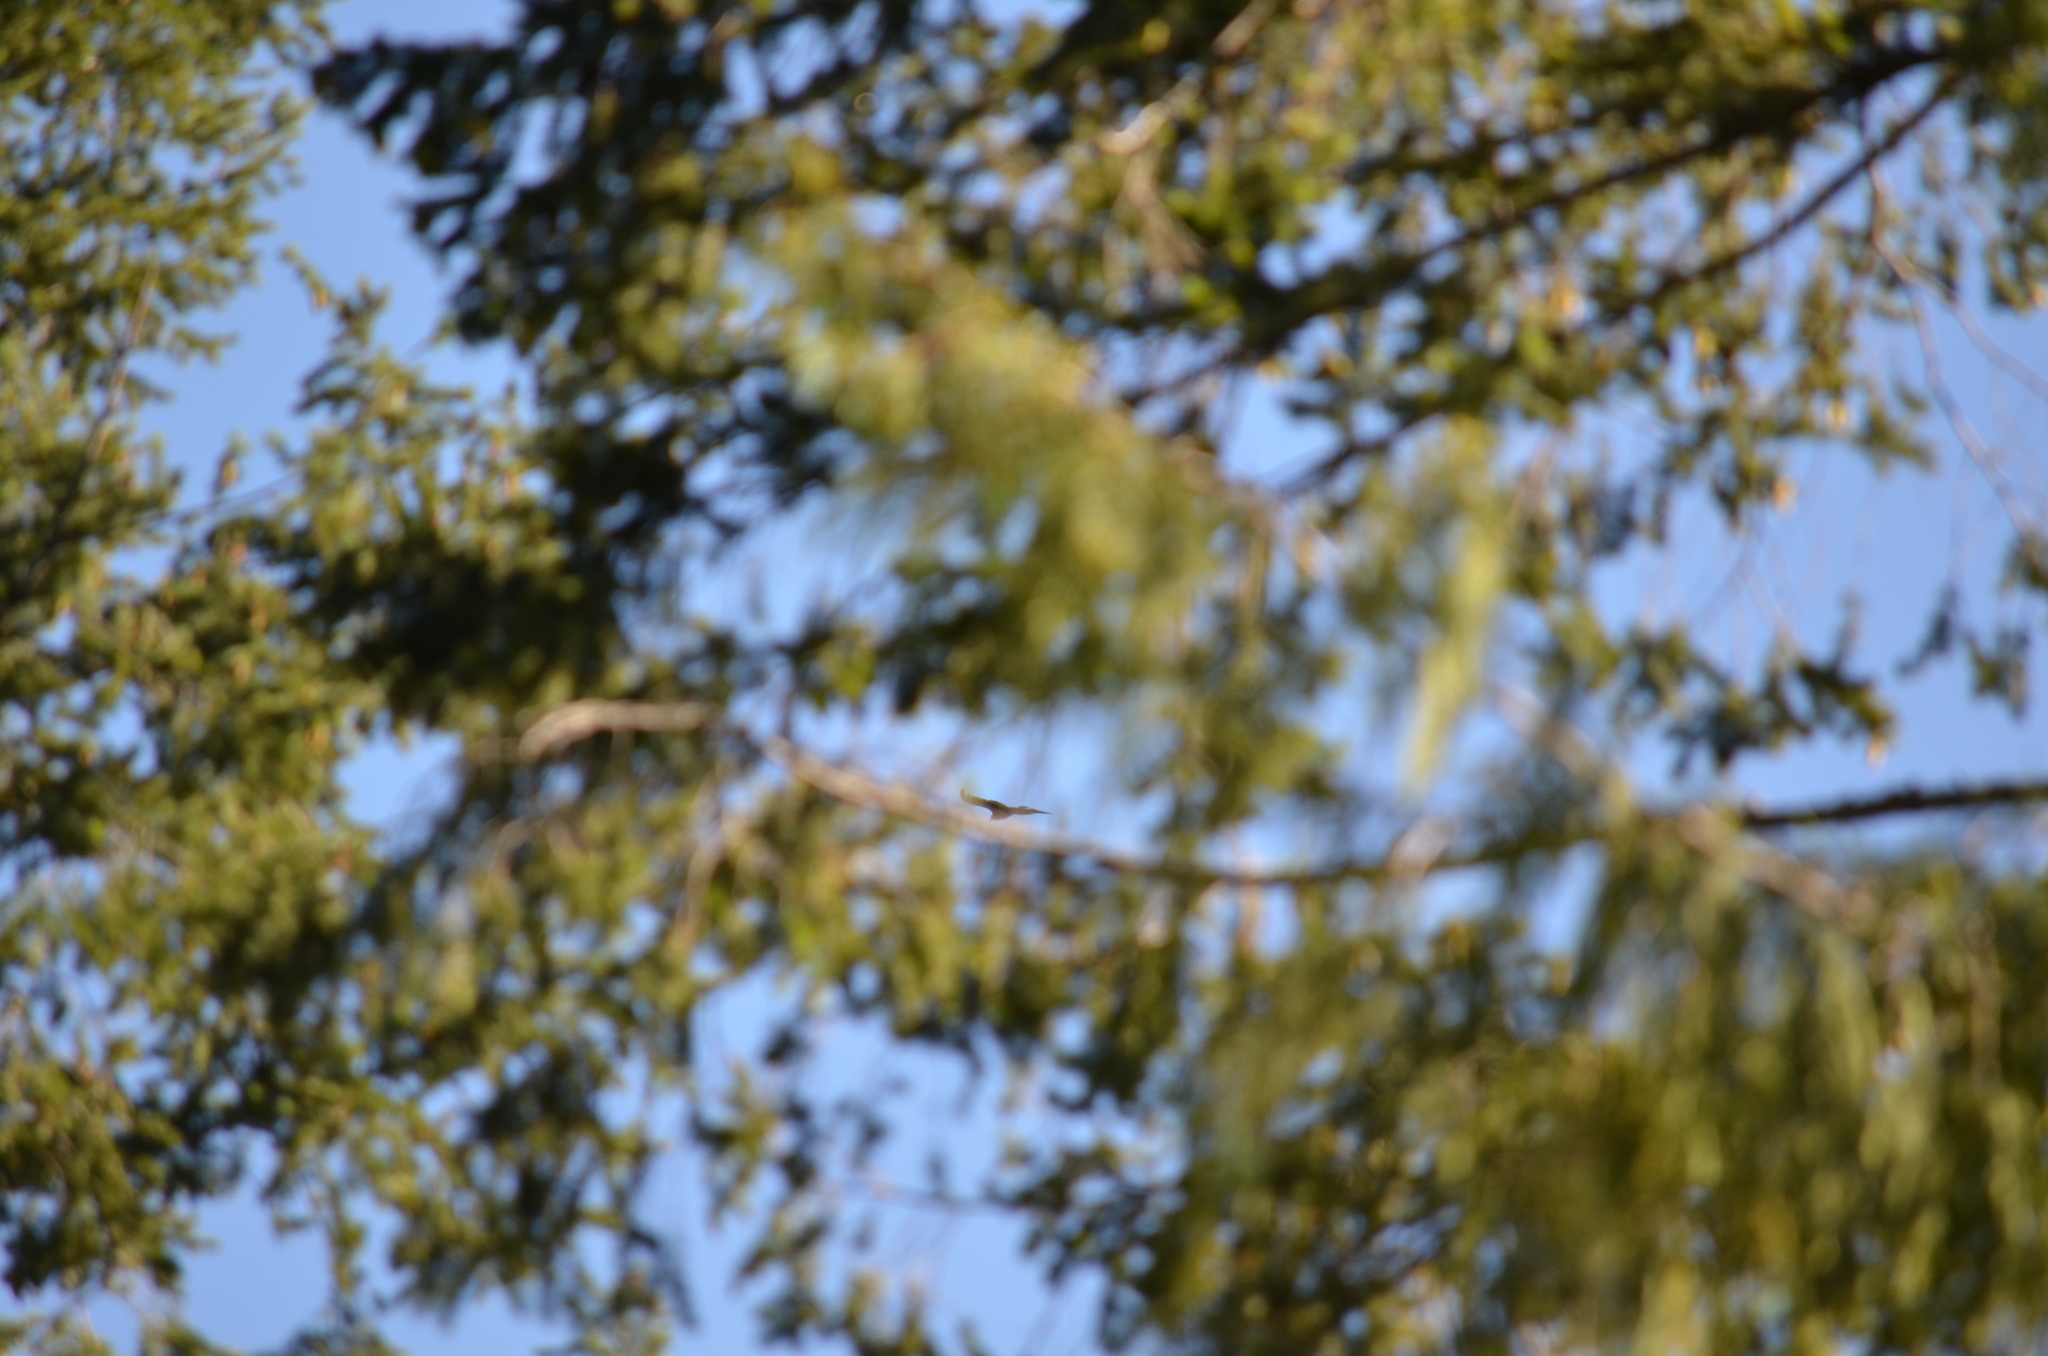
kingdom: Animalia
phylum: Chordata
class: Aves
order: Accipitriformes
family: Cathartidae
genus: Cathartes
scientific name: Cathartes aura
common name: Turkey vulture
